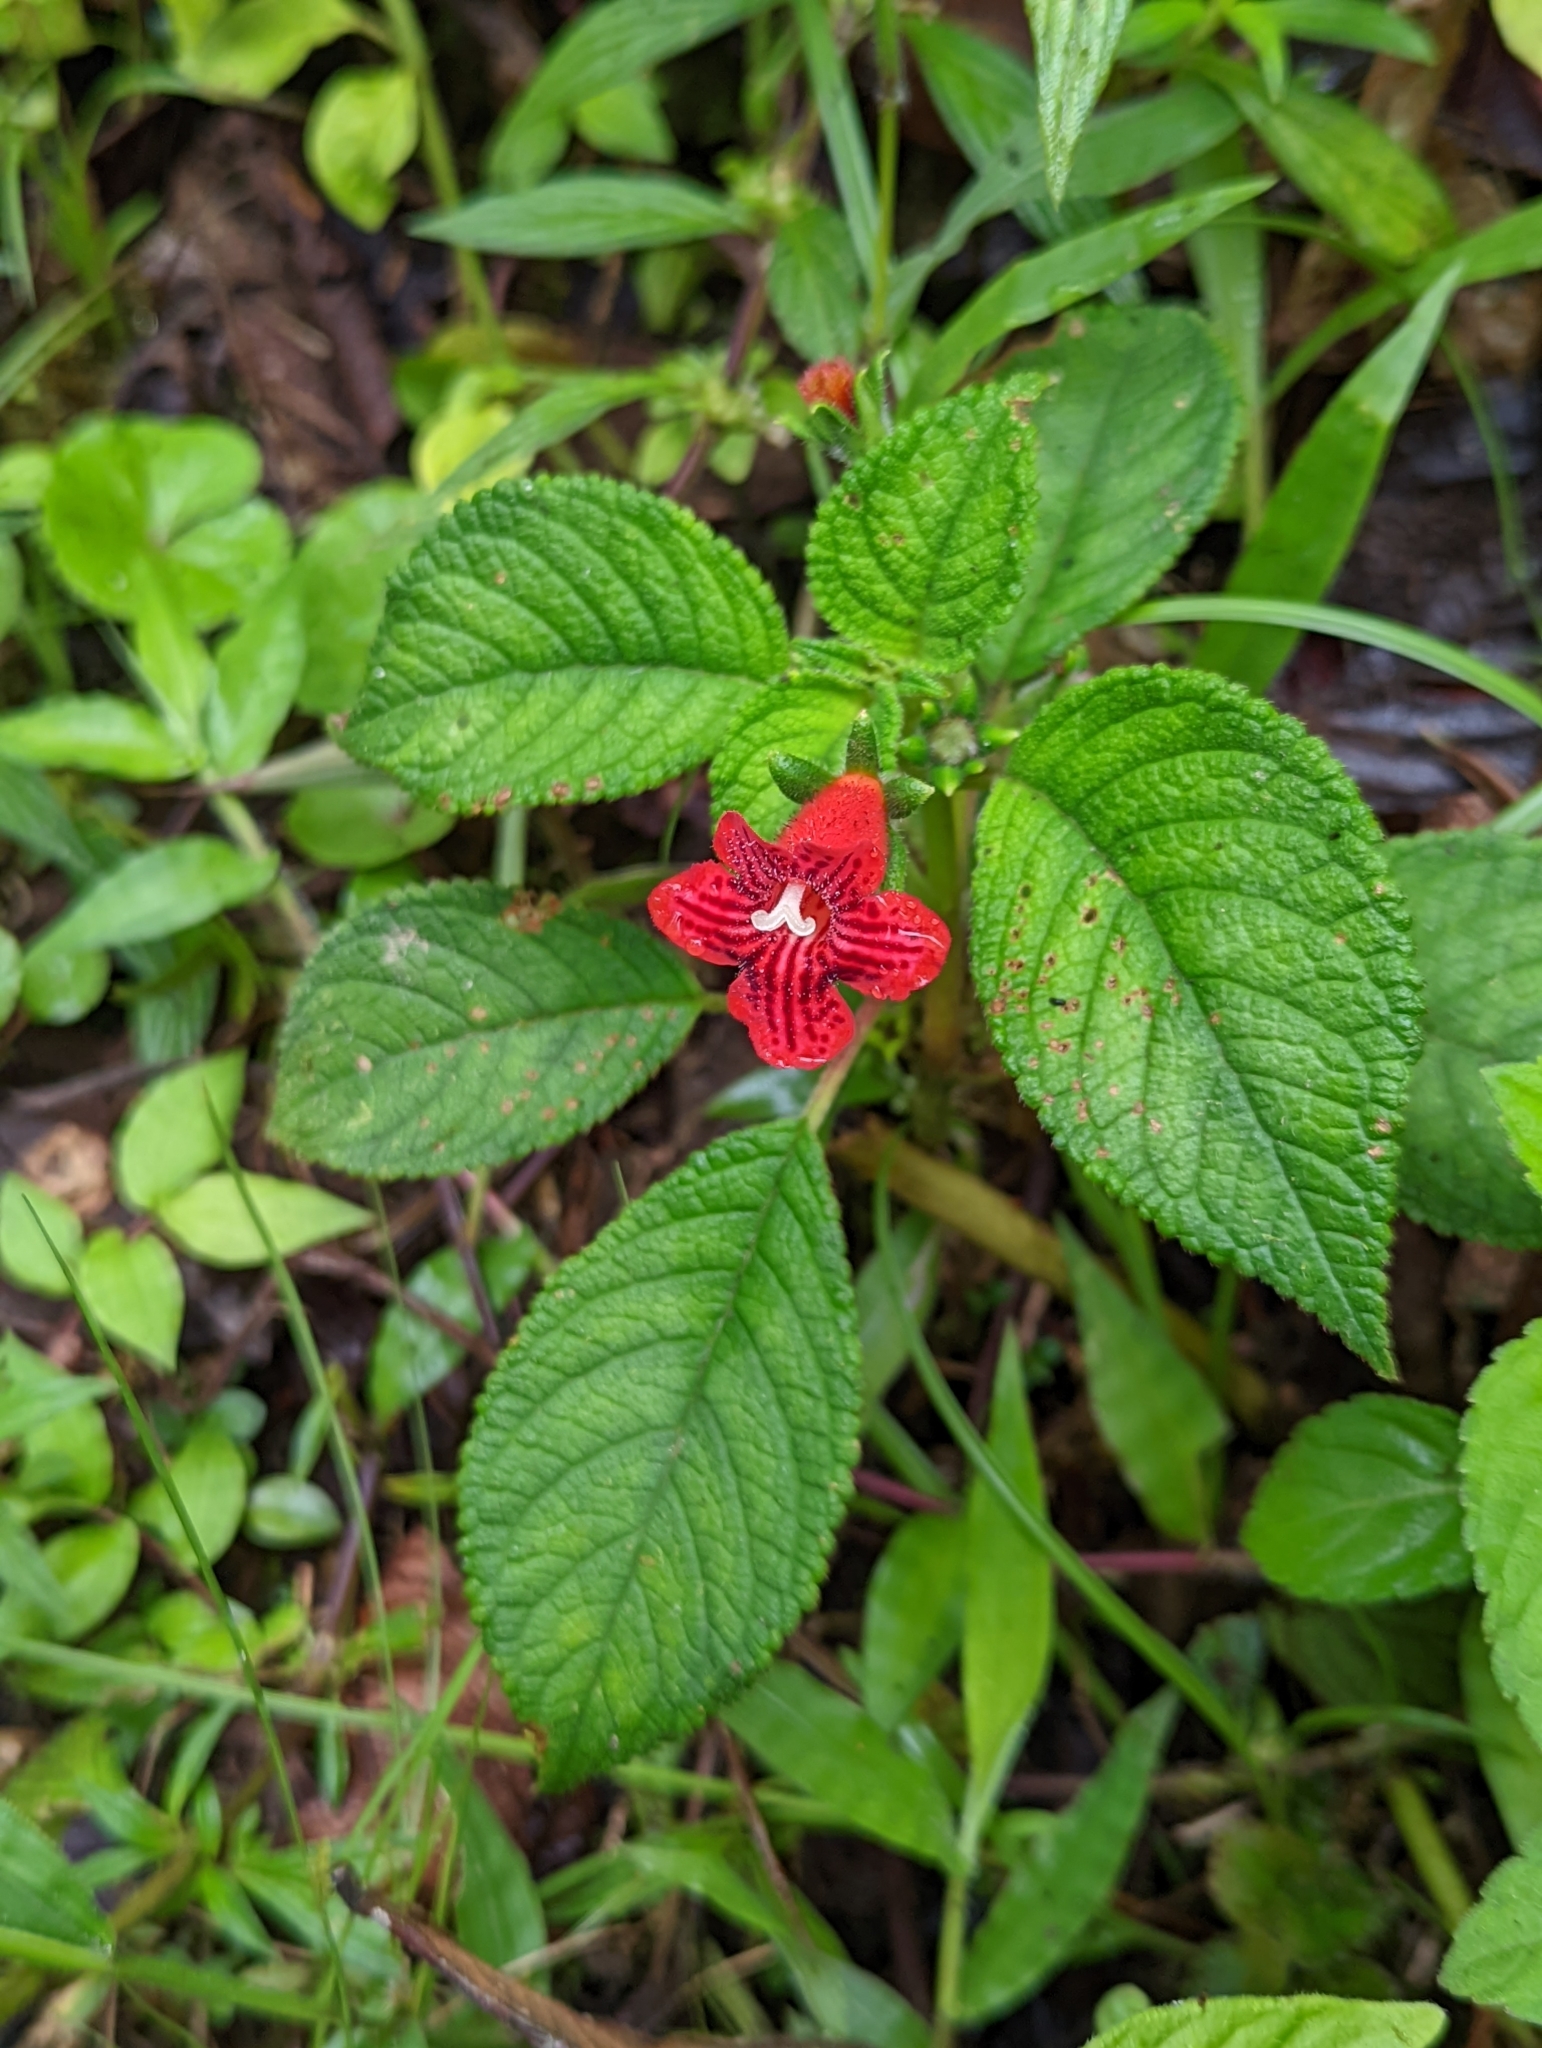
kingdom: Plantae
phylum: Tracheophyta
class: Magnoliopsida
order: Lamiales
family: Gesneriaceae
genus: Kohleria
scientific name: Kohleria inaequalis
